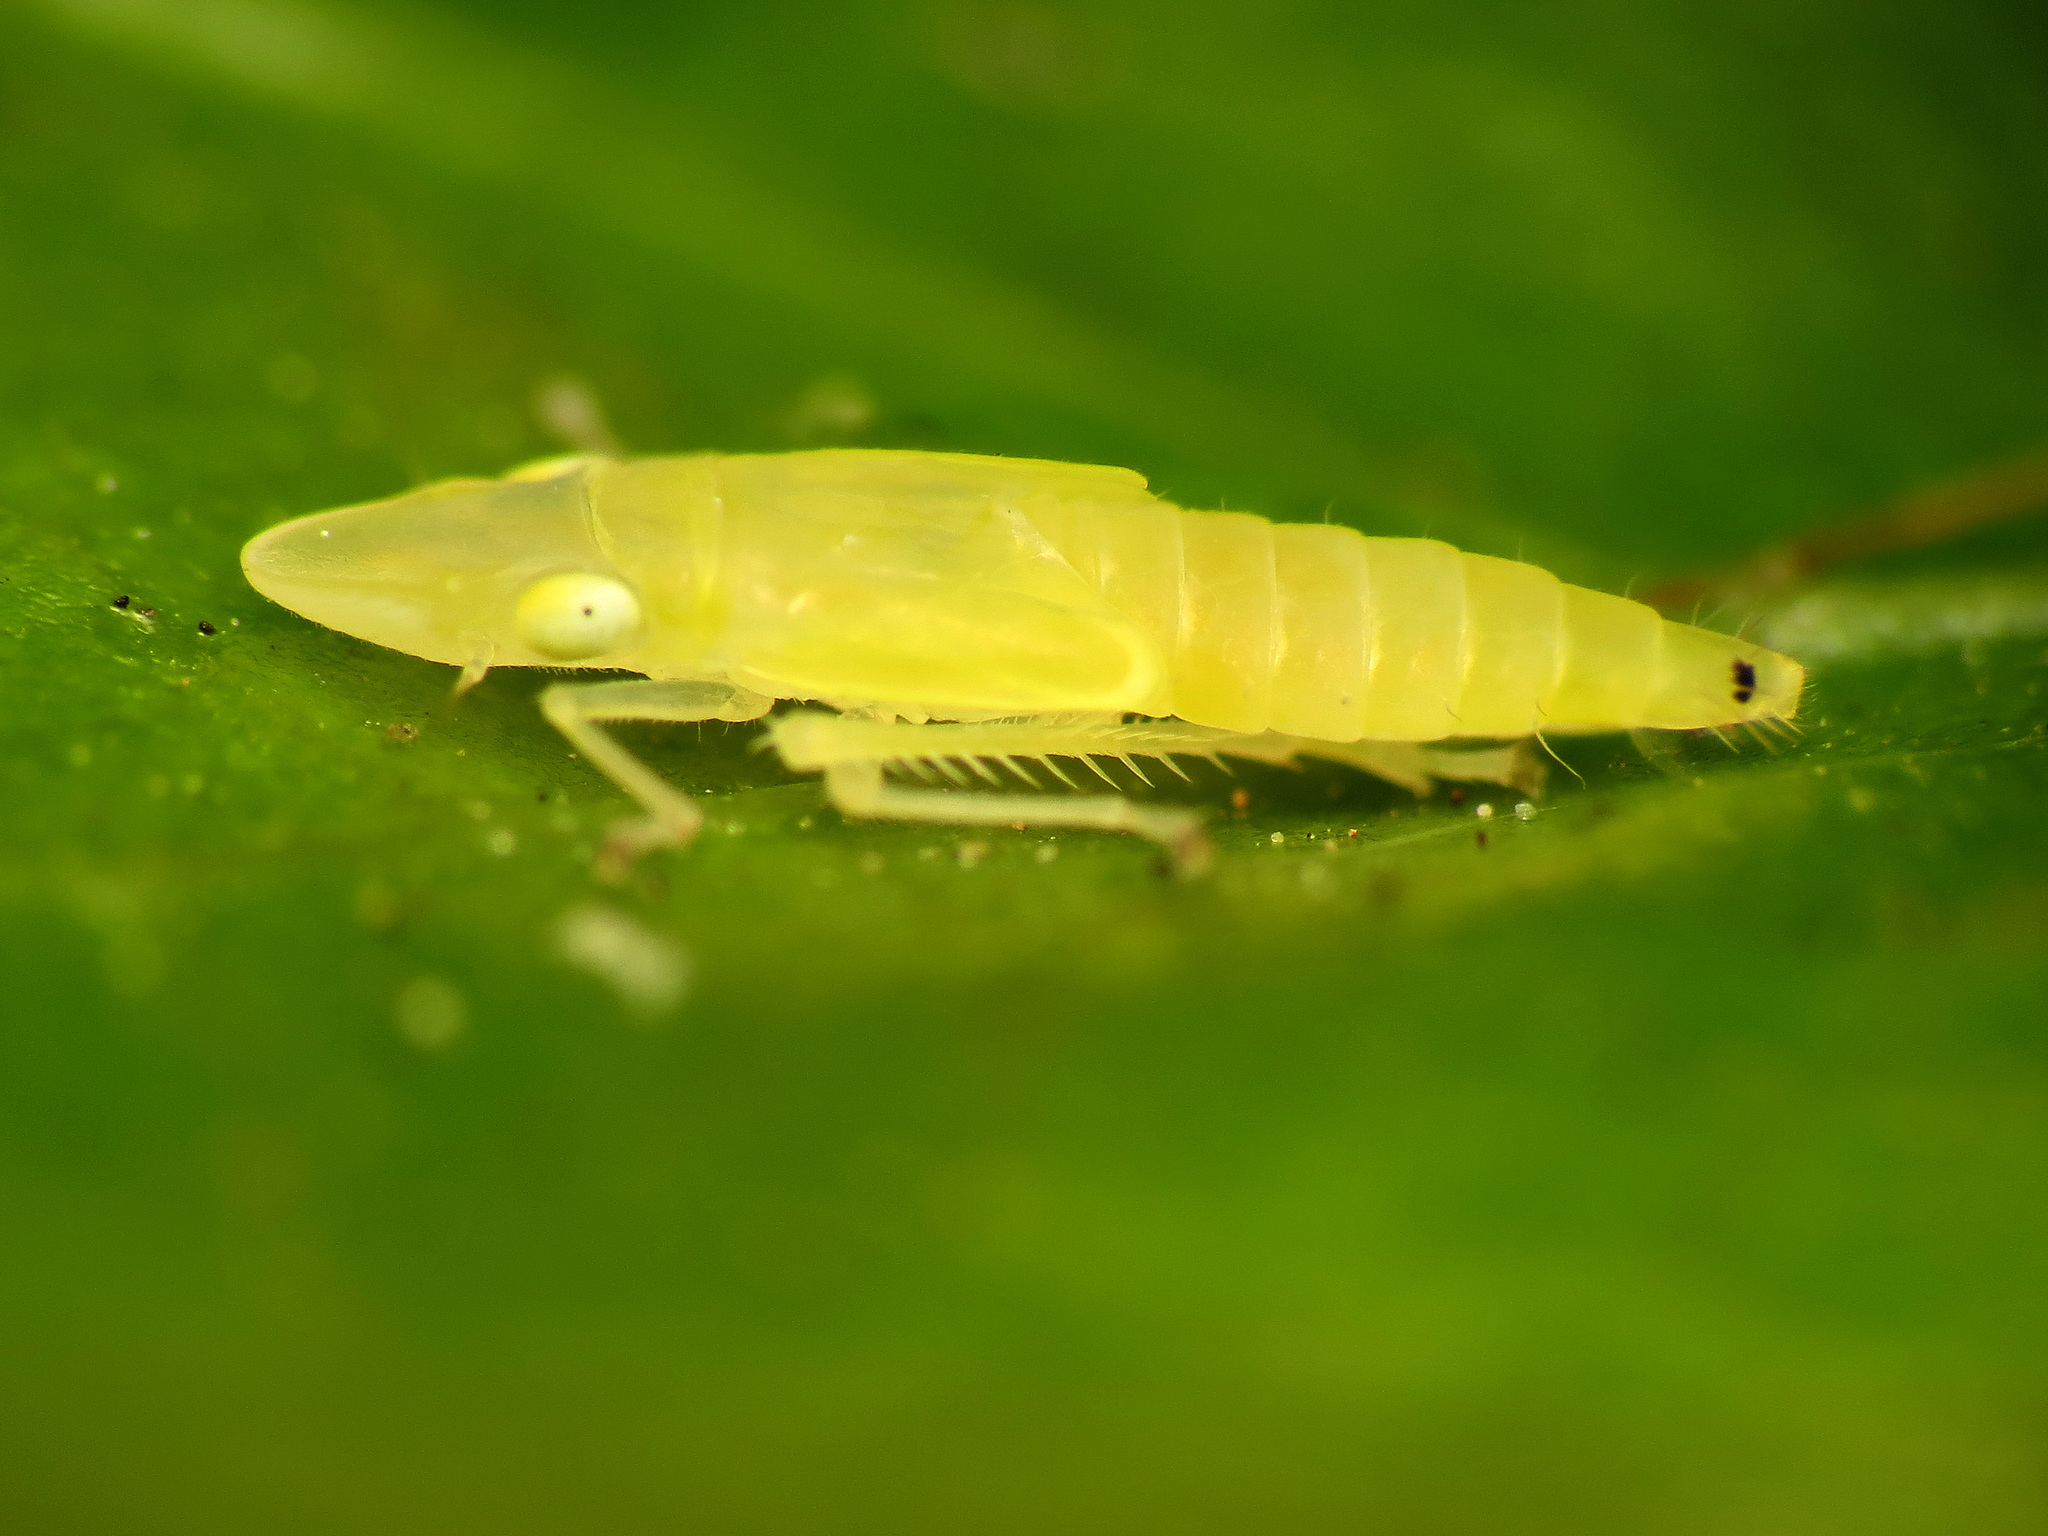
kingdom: Animalia
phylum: Arthropoda
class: Insecta
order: Hemiptera
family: Cicadellidae
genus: Sophonia
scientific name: Sophonia orientalis
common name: Two-spotted leafhopper
